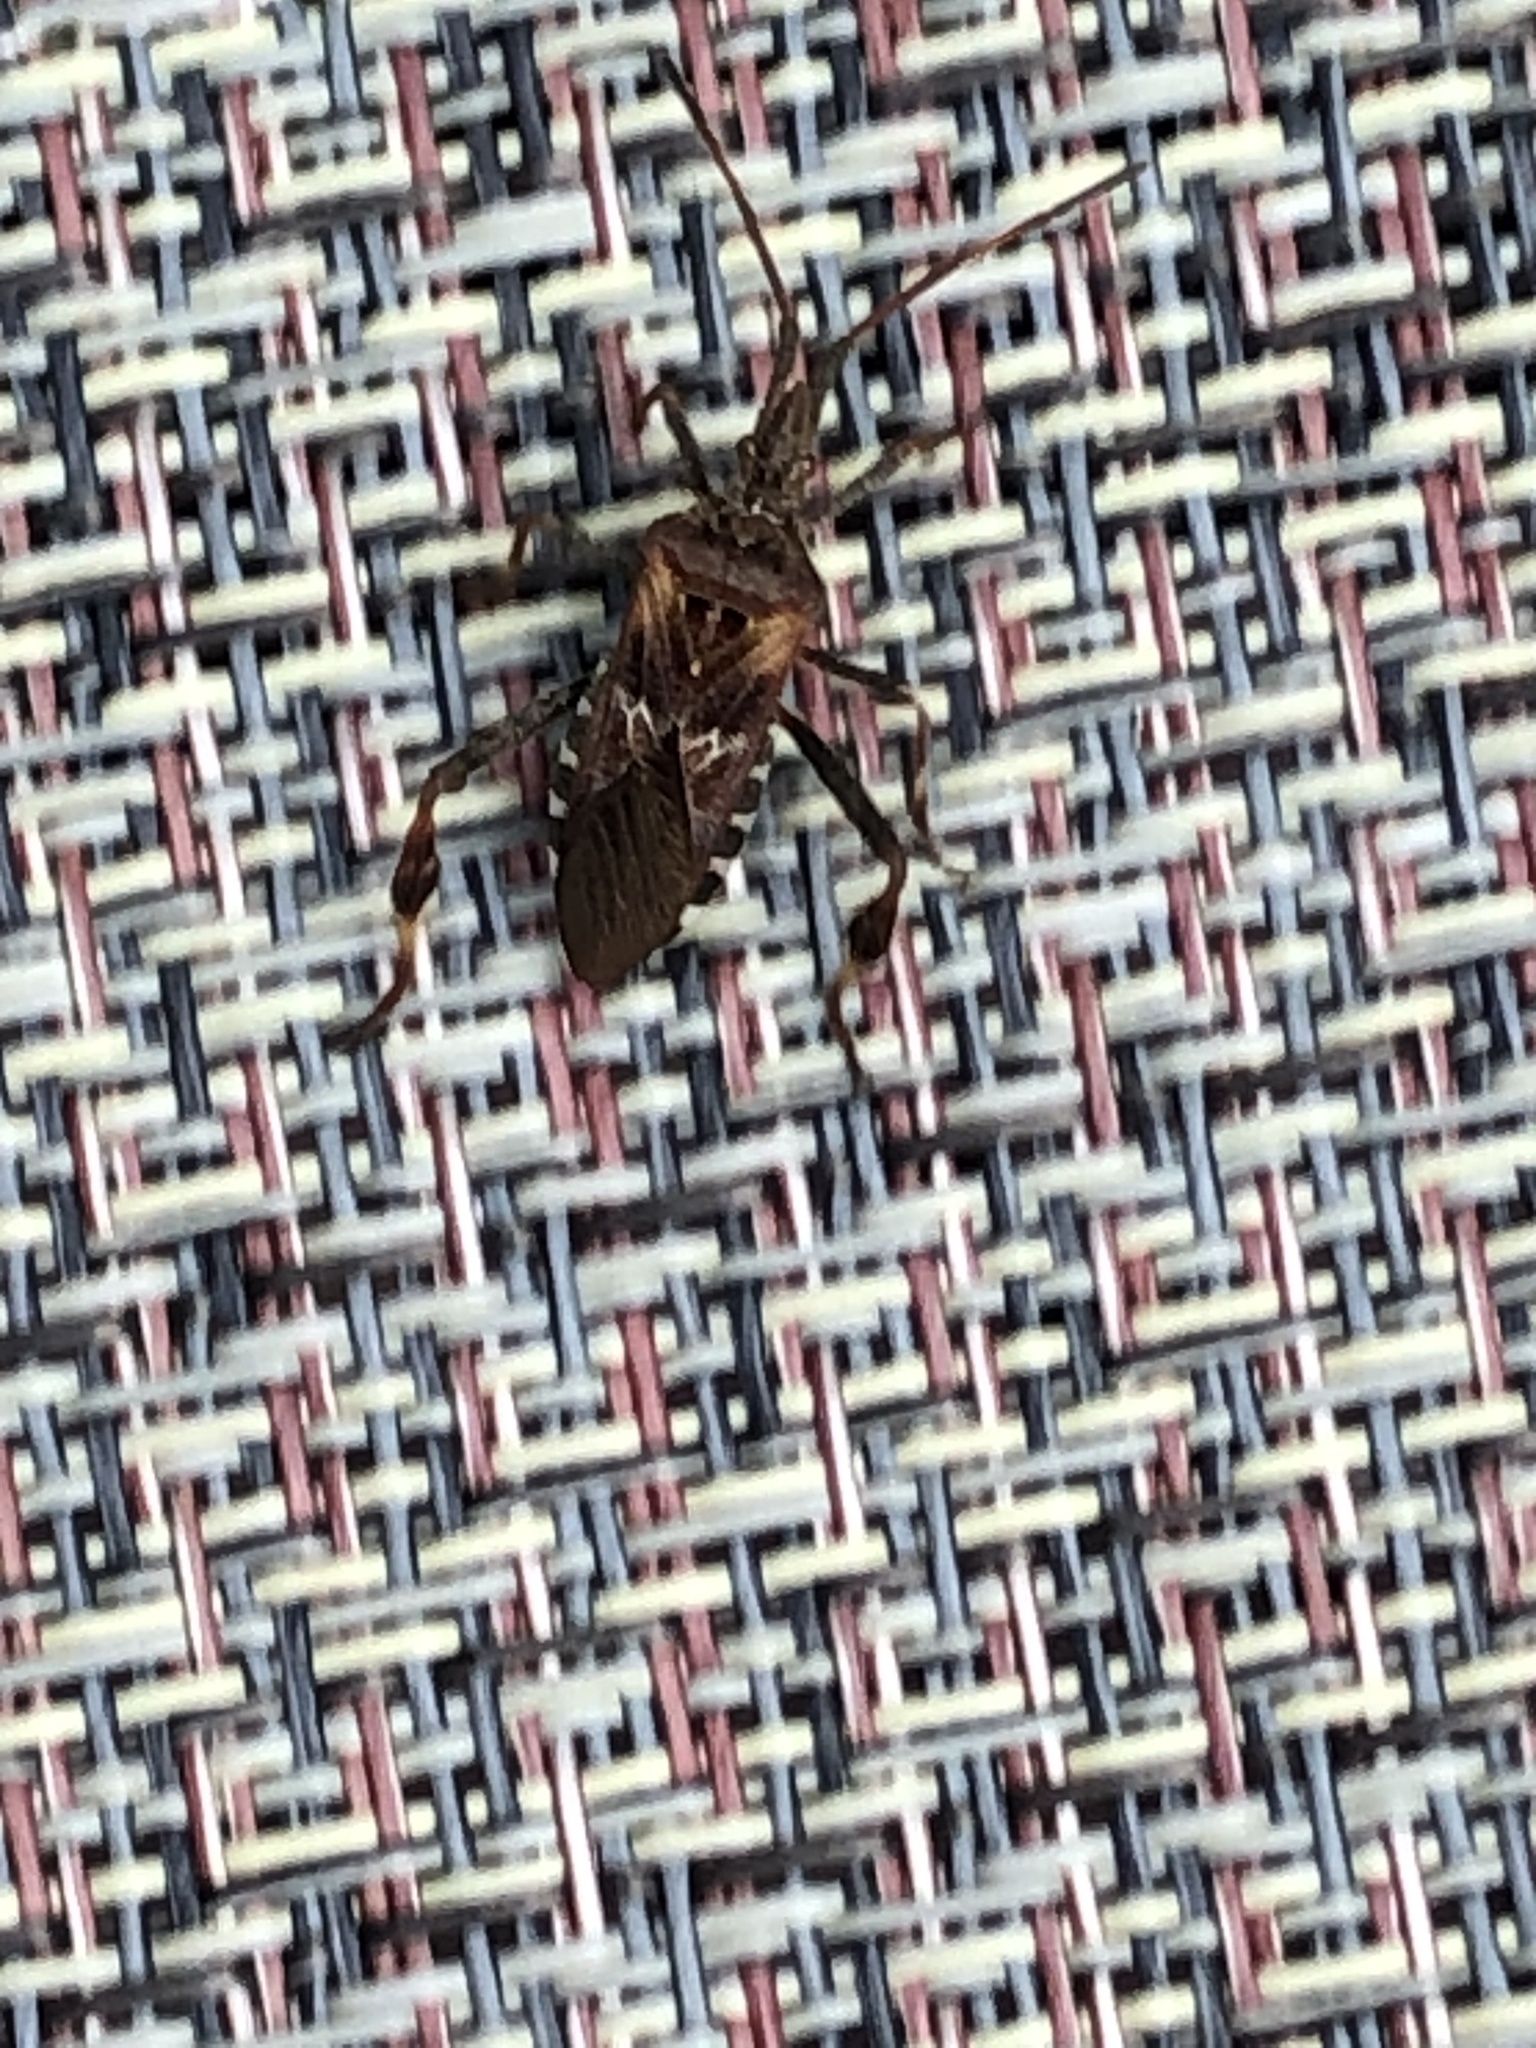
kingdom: Animalia
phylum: Arthropoda
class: Insecta
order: Hemiptera
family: Coreidae
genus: Leptoglossus
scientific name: Leptoglossus occidentalis
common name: Western conifer-seed bug
